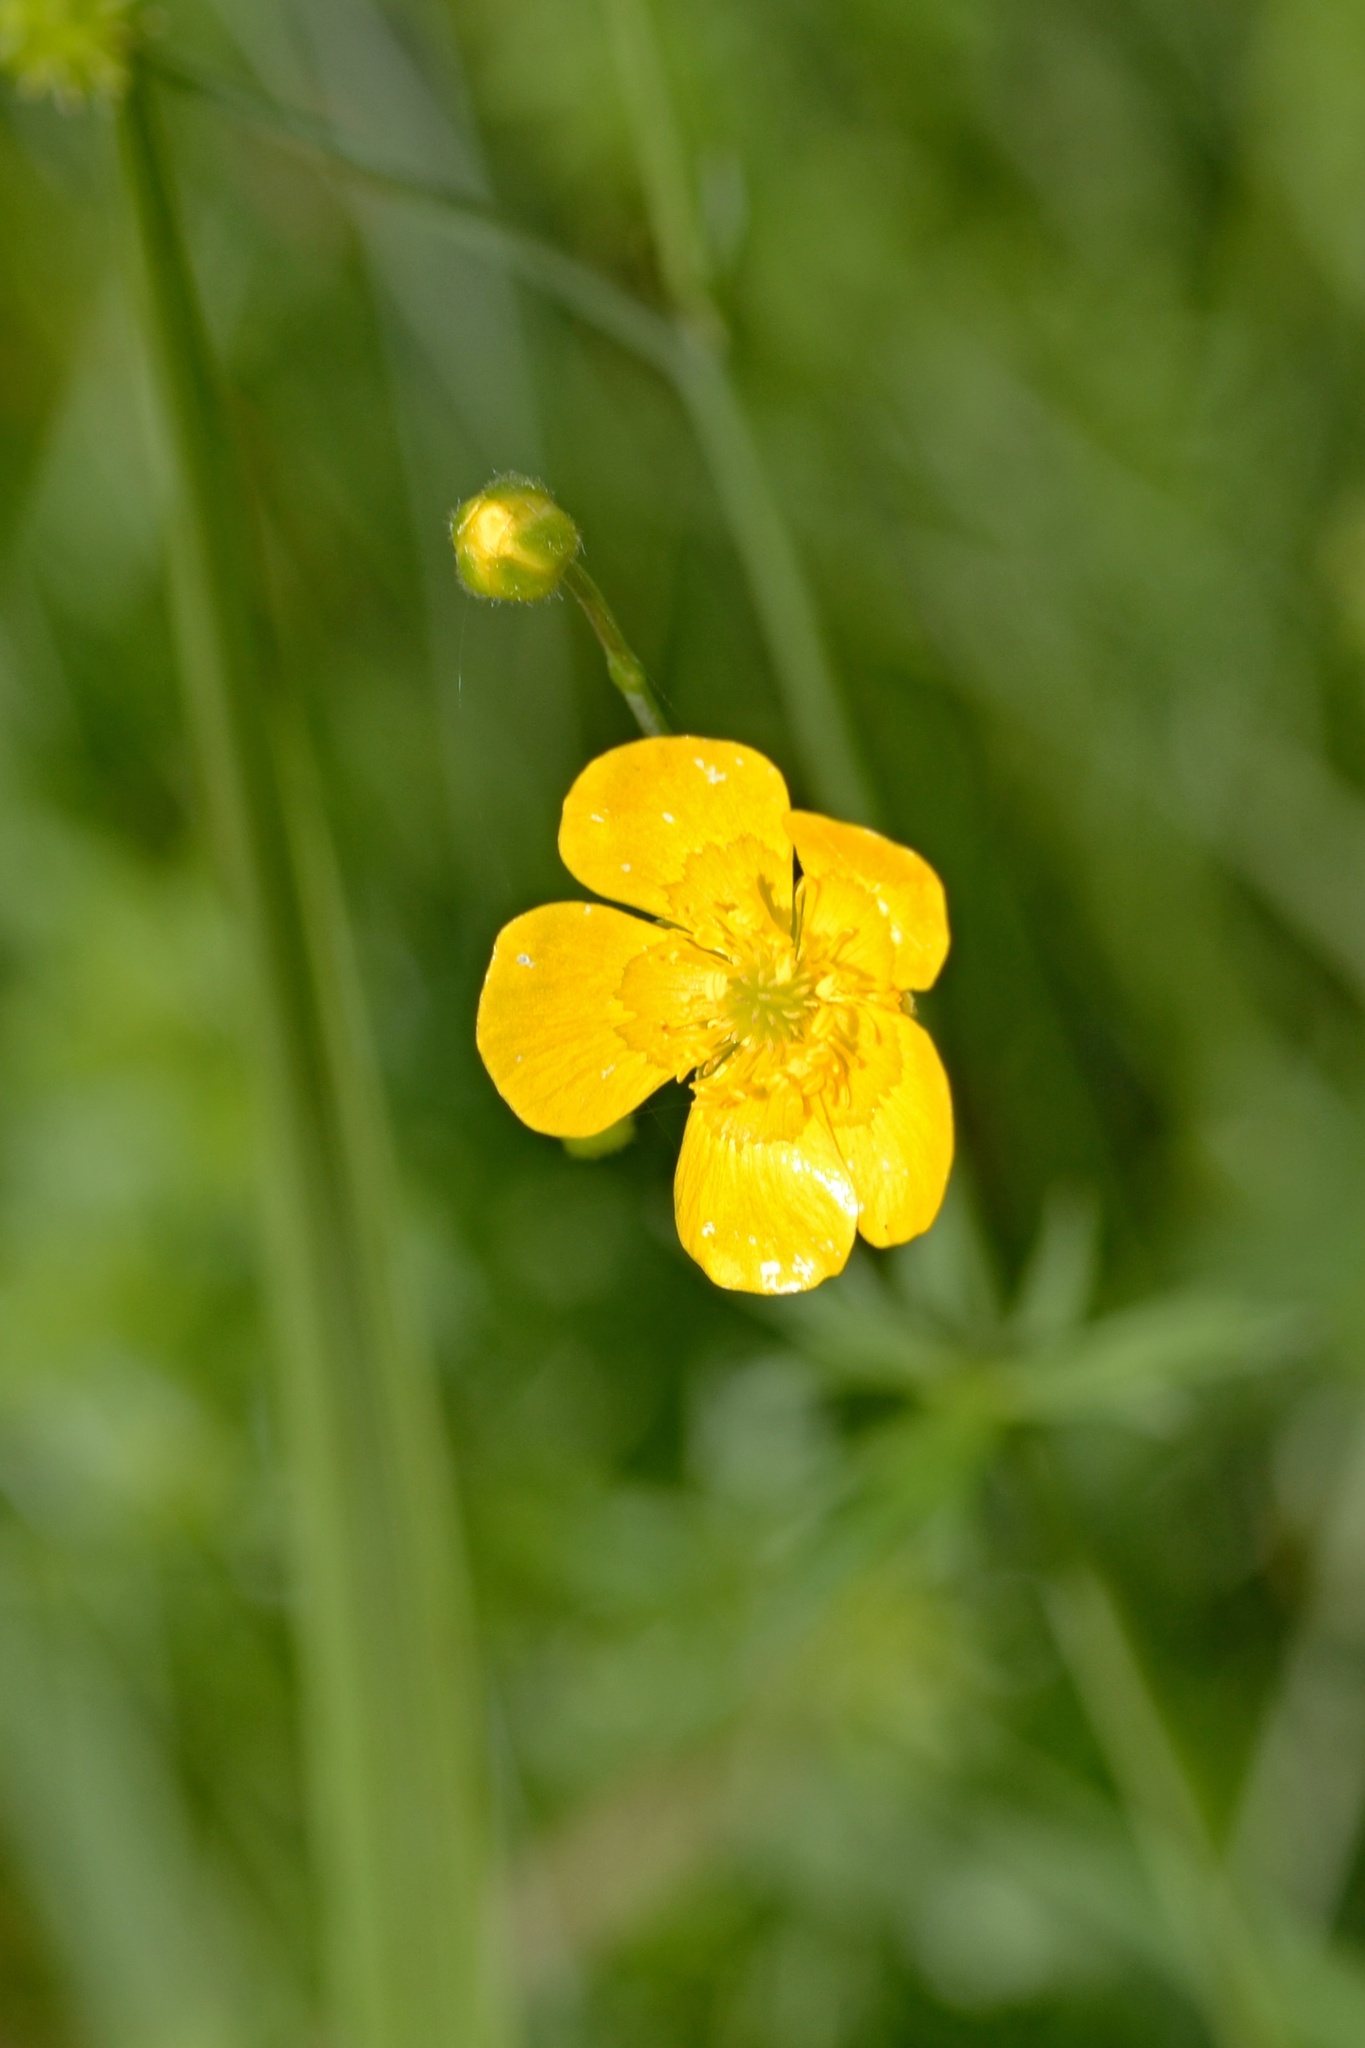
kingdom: Plantae
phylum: Tracheophyta
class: Magnoliopsida
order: Ranunculales
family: Ranunculaceae
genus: Ranunculus
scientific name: Ranunculus acris
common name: Meadow buttercup
